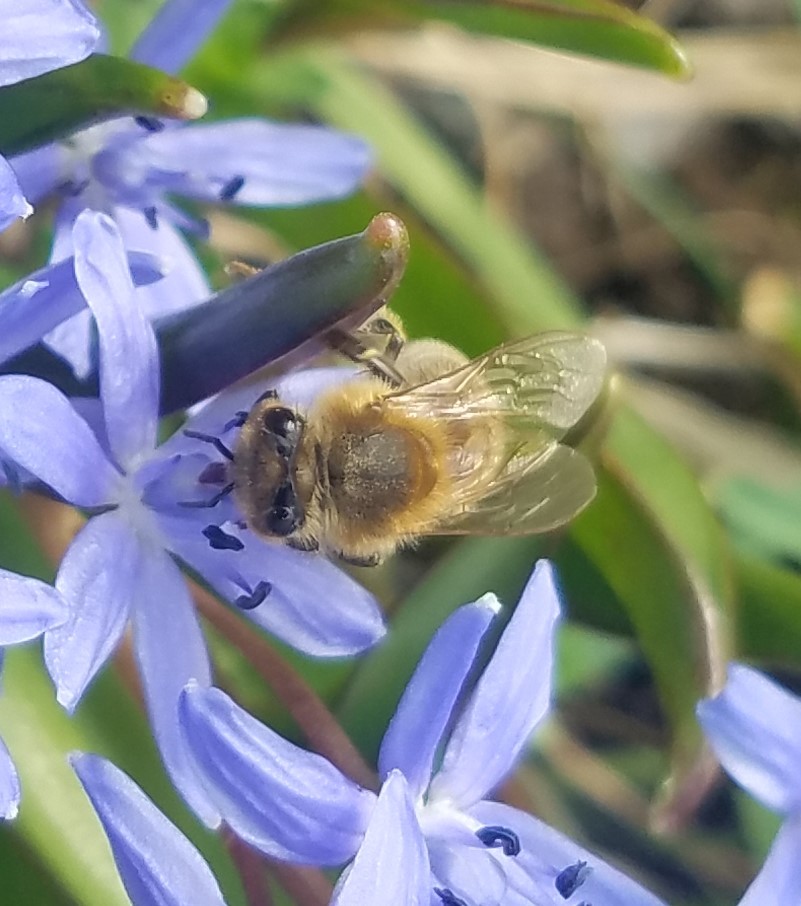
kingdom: Animalia
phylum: Arthropoda
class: Insecta
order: Hymenoptera
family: Apidae
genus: Apis
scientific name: Apis mellifera
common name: Honey bee
